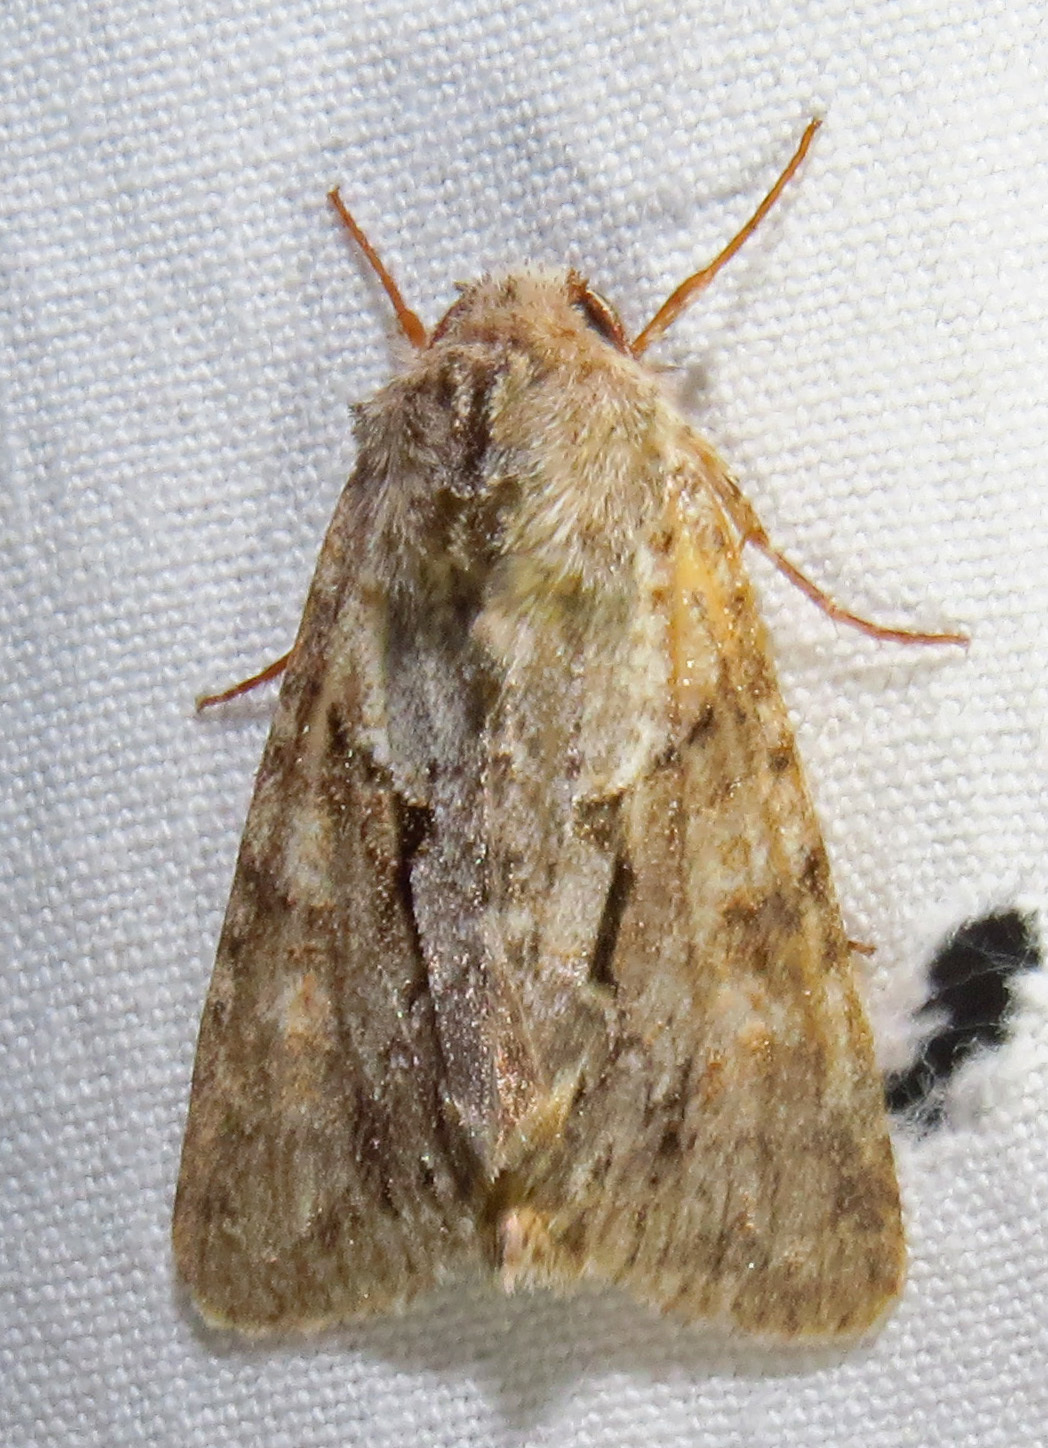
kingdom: Animalia
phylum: Arthropoda
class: Insecta
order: Lepidoptera
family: Noctuidae
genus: Achatia
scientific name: Achatia distincta
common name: Distinct quaker
